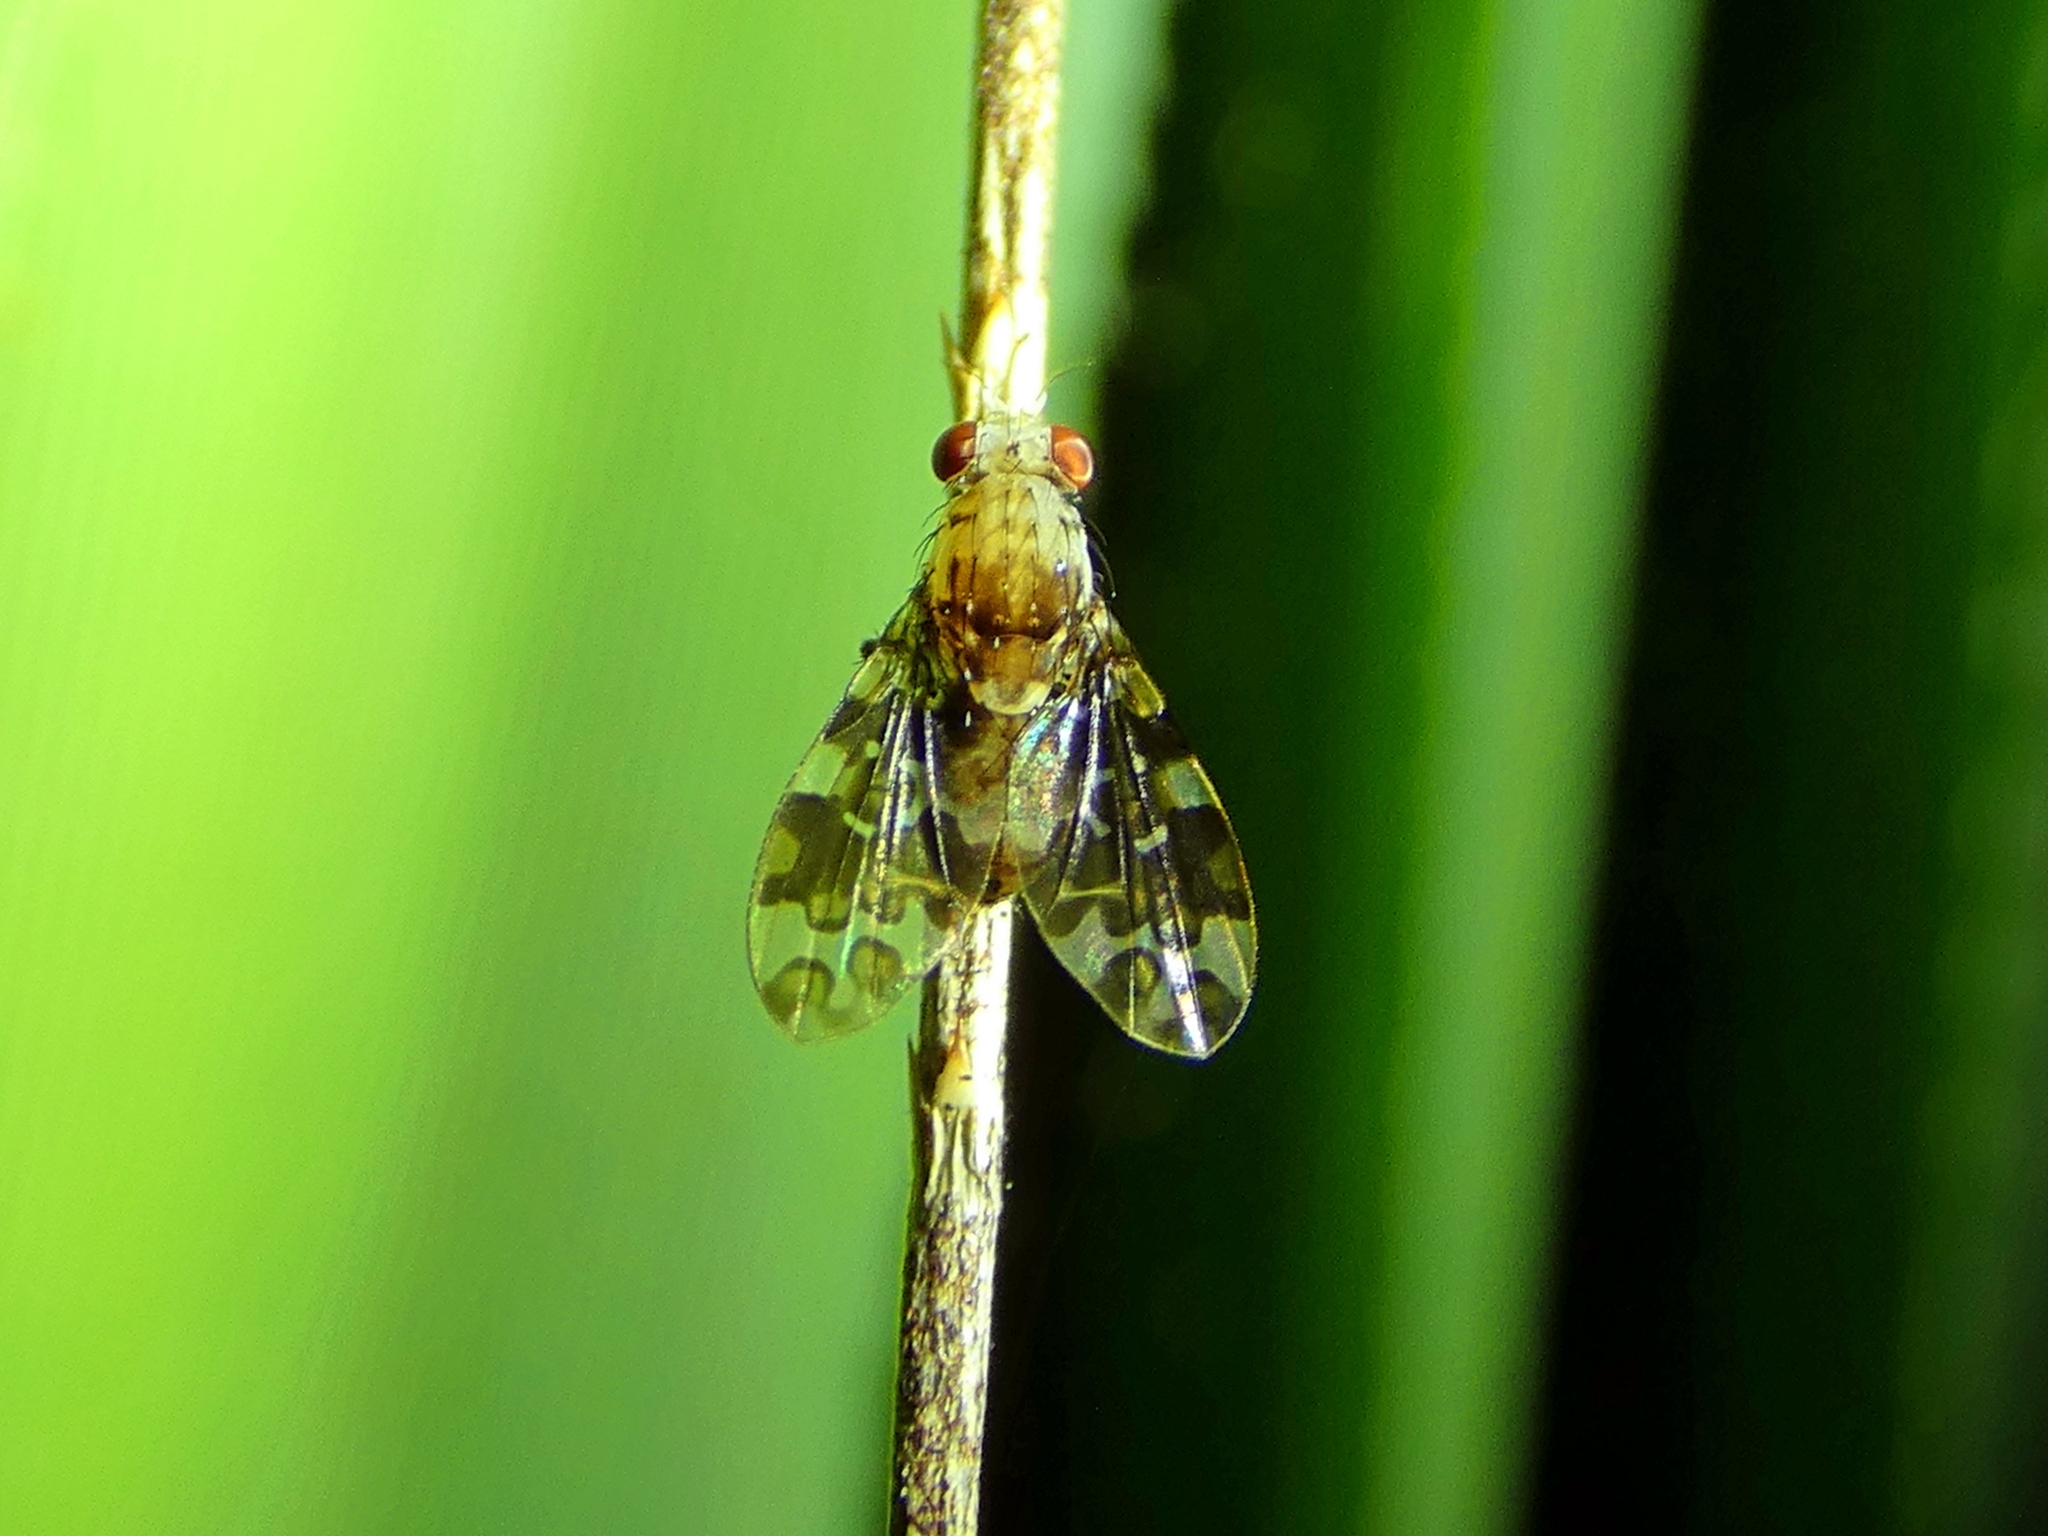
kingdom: Animalia
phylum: Arthropoda
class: Insecta
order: Diptera
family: Lauxaniidae
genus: Mettinia
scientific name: Mettinia suboceliifera
